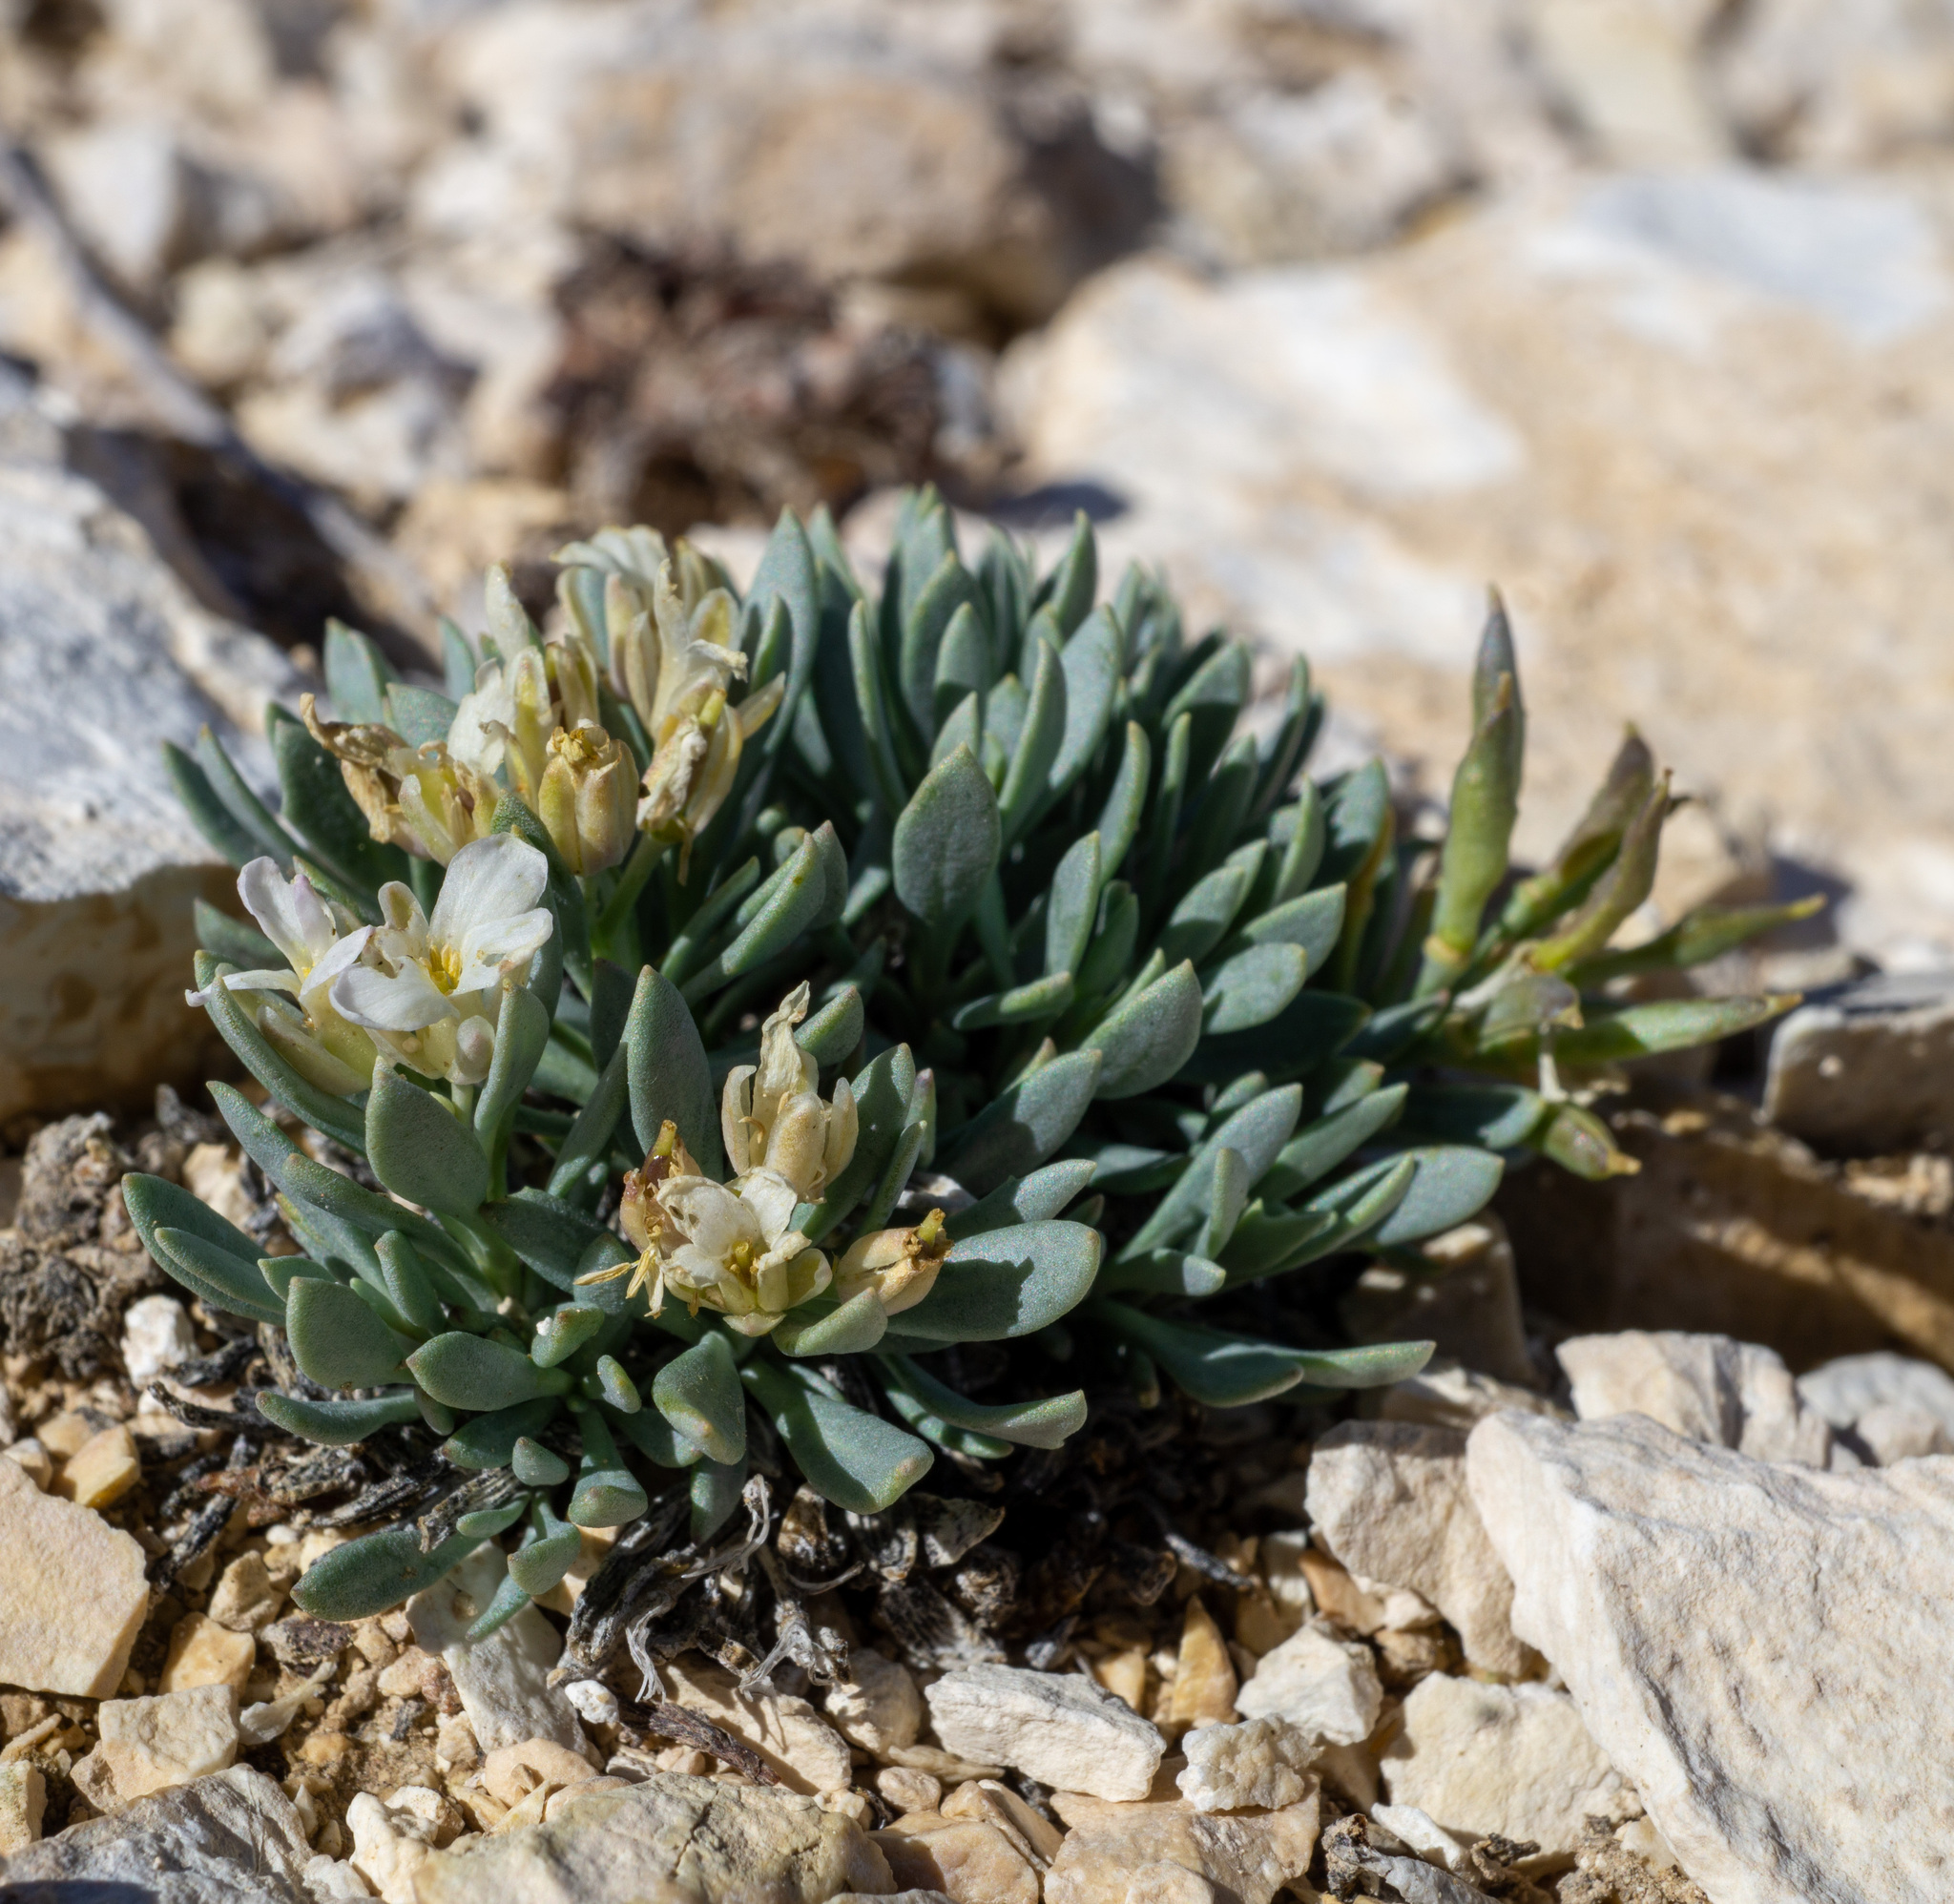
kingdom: Plantae
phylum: Tracheophyta
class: Magnoliopsida
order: Brassicales
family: Brassicaceae
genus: Terraria
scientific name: Terraria haydenii
